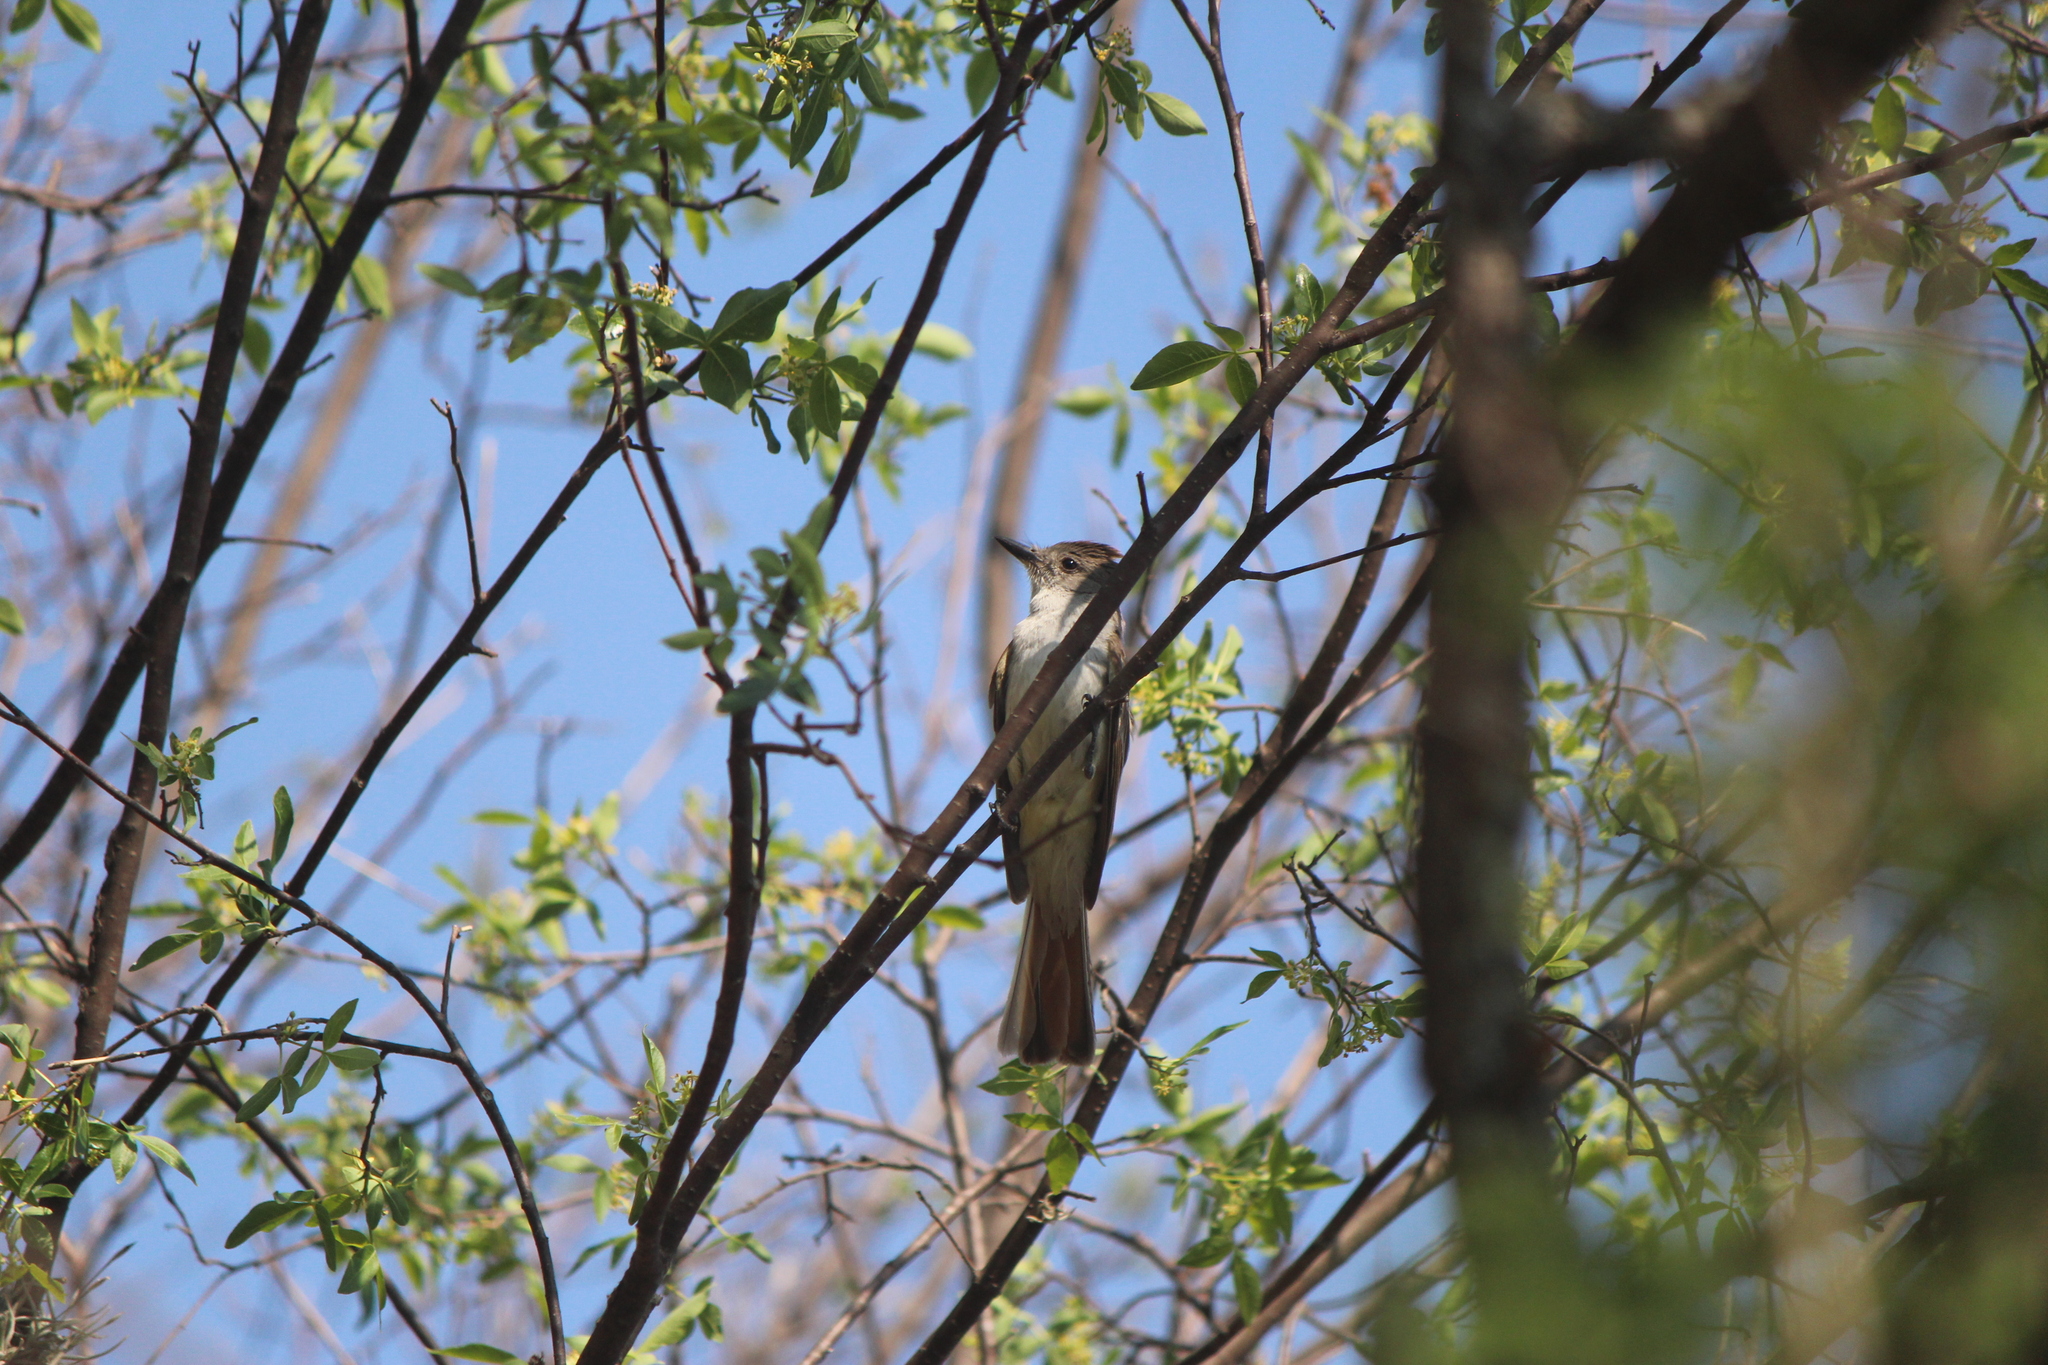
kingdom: Animalia
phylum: Chordata
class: Aves
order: Passeriformes
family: Tyrannidae
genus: Myiarchus
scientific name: Myiarchus cinerascens
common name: Ash-throated flycatcher
